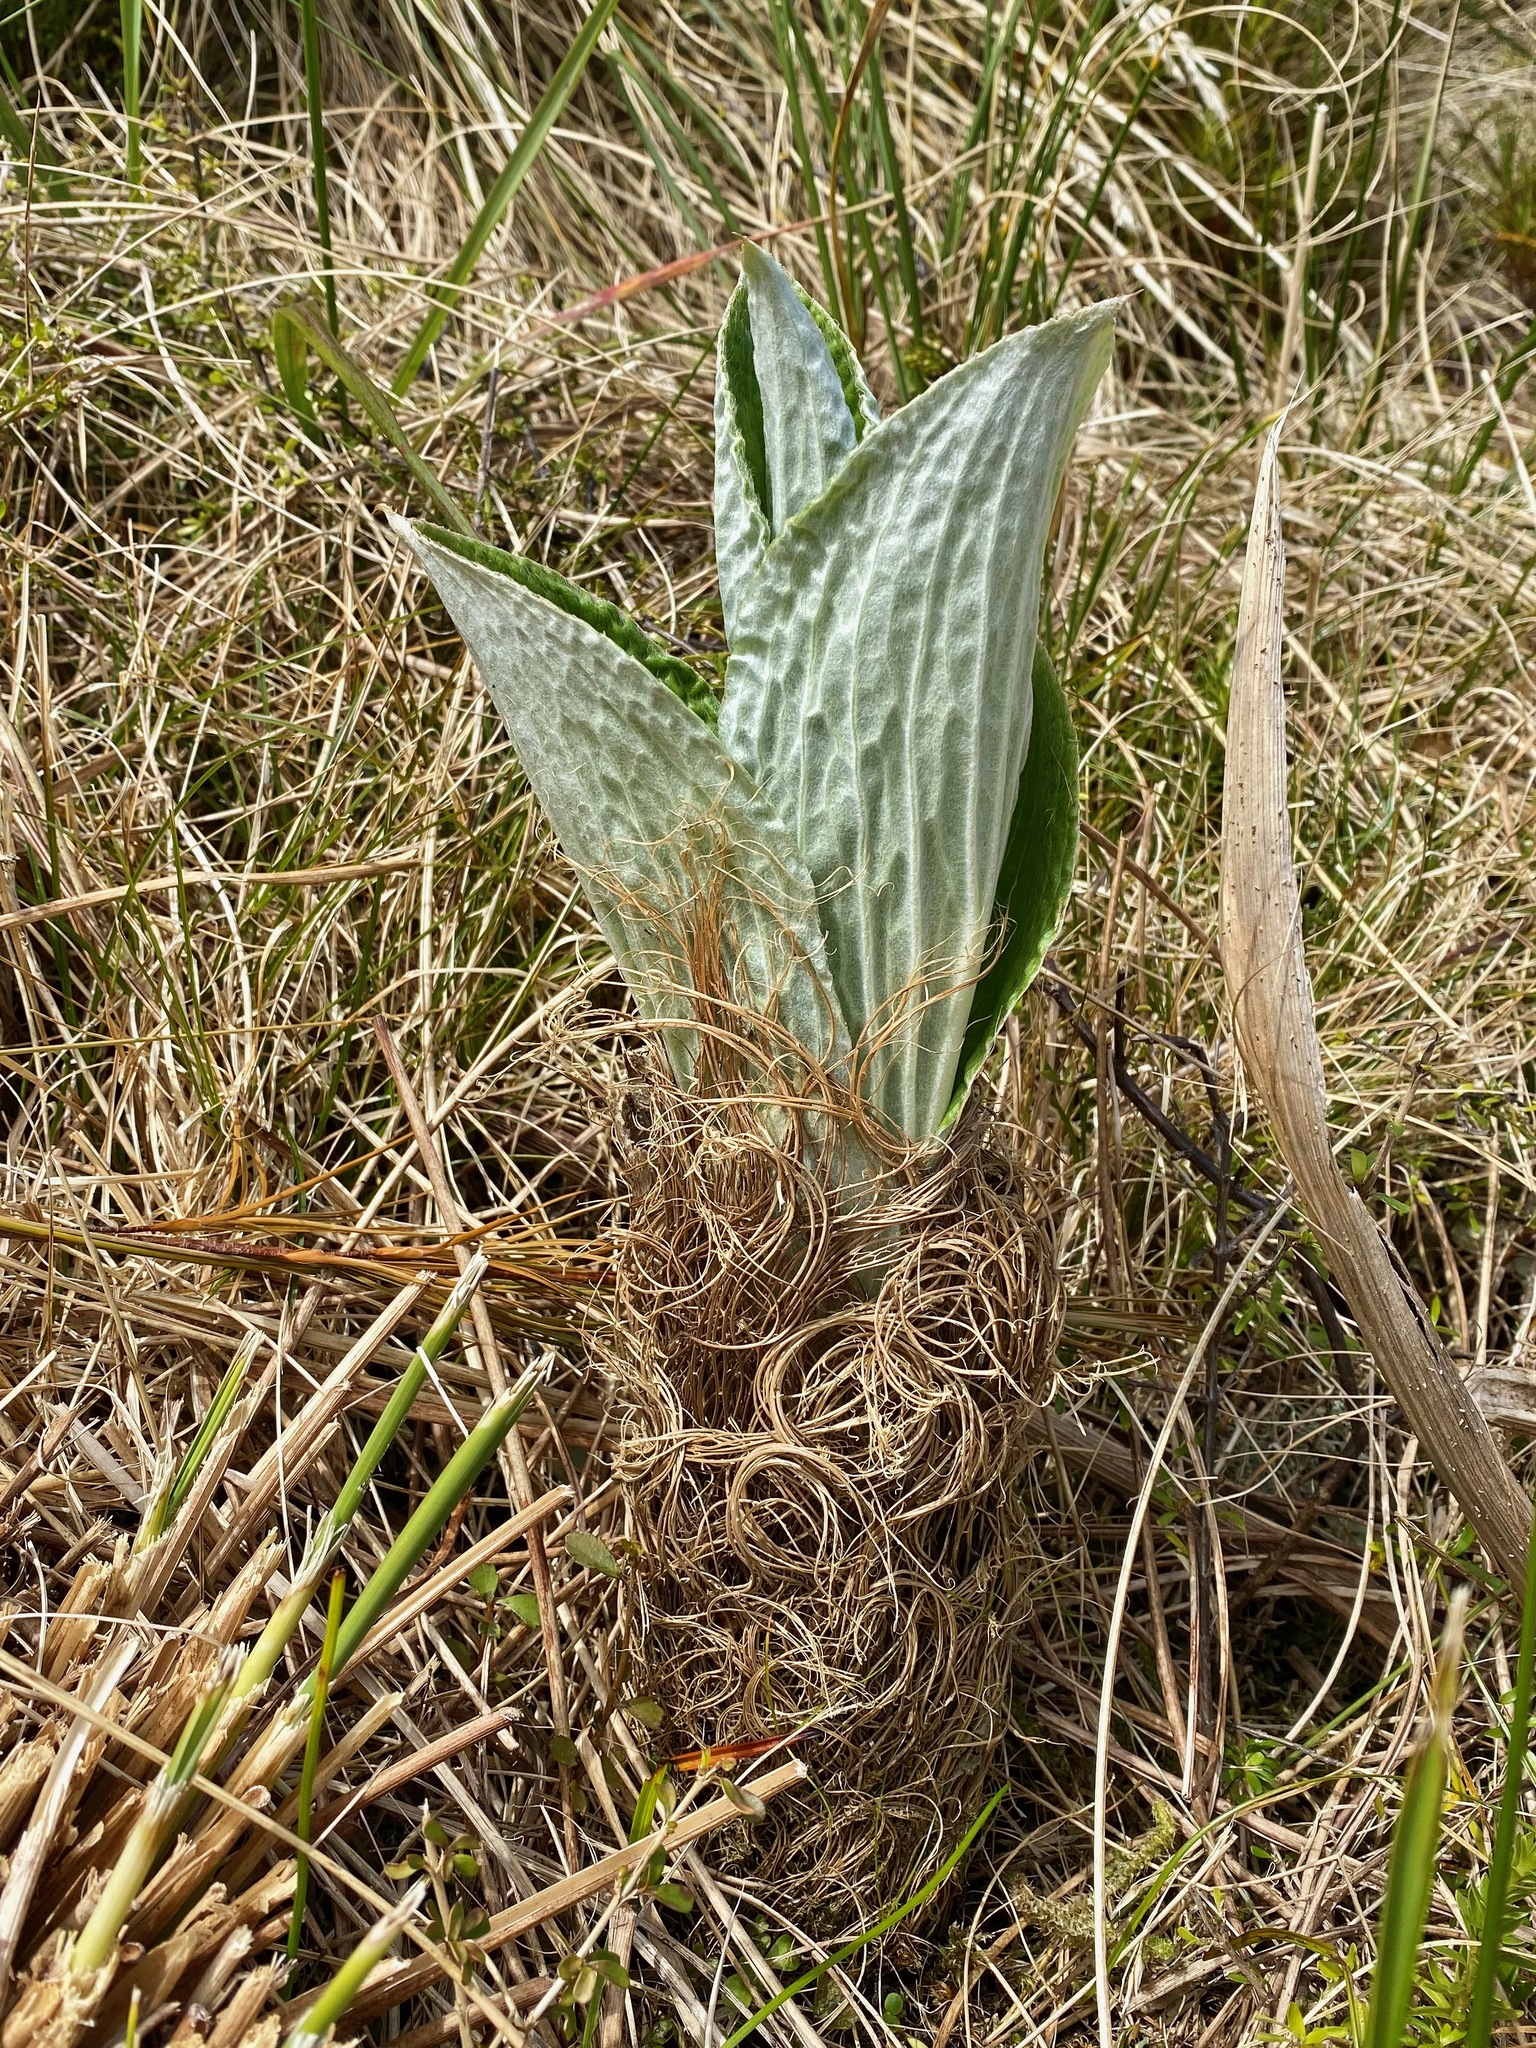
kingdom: Plantae
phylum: Tracheophyta
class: Magnoliopsida
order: Asterales
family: Asteraceae
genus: Pleurophyllum
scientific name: Pleurophyllum criniferum
